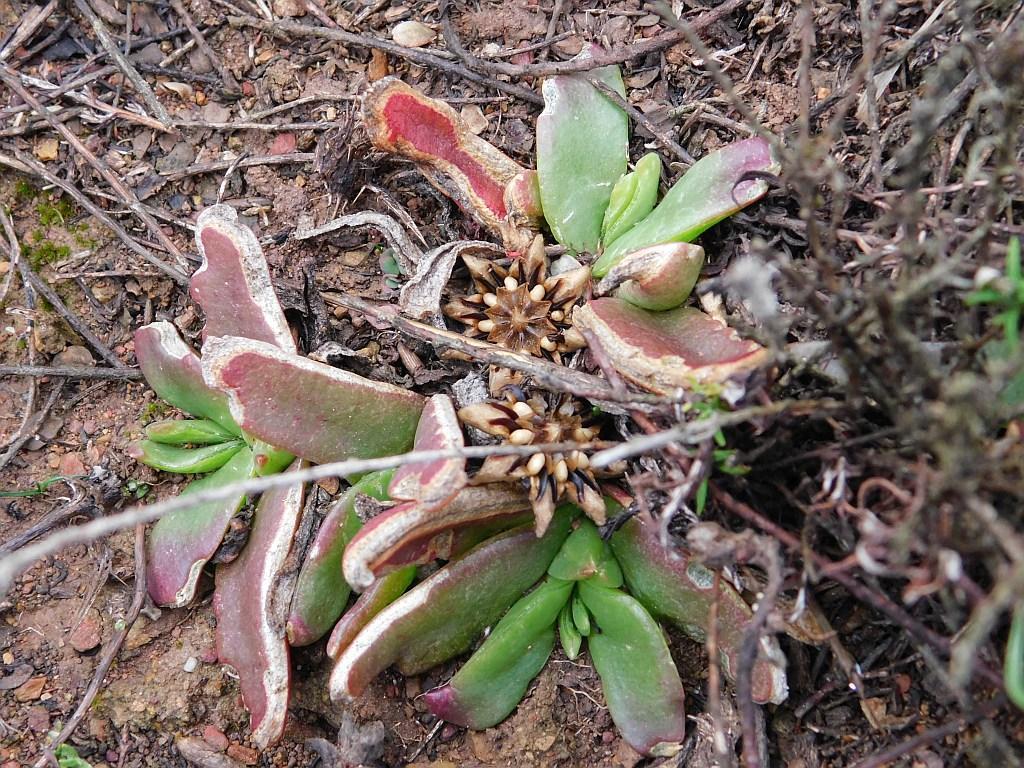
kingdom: Plantae
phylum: Tracheophyta
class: Magnoliopsida
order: Caryophyllales
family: Aizoaceae
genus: Glottiphyllum
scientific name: Glottiphyllum depressum
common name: Fig-marigold
